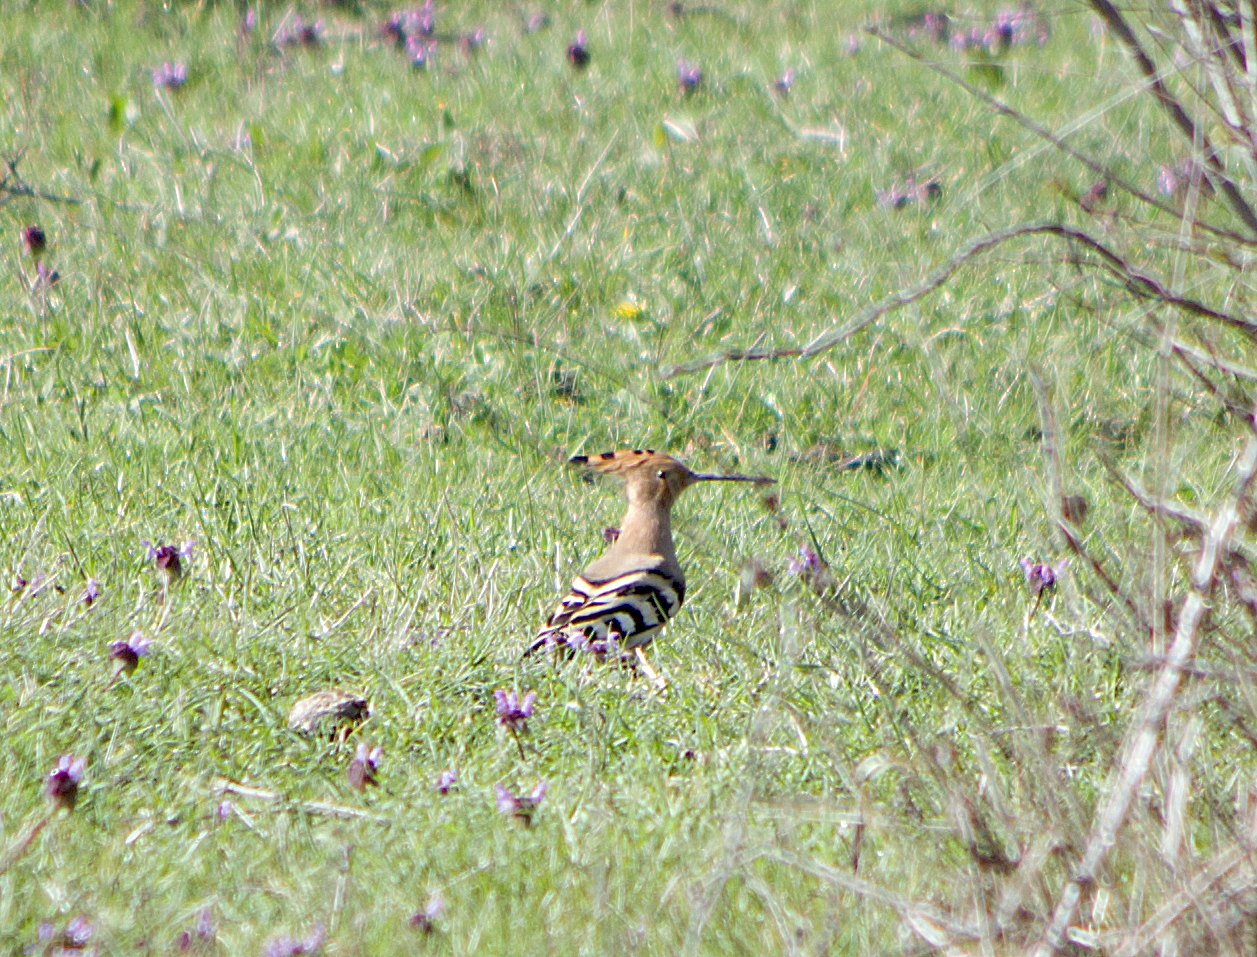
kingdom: Animalia
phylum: Chordata
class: Aves
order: Bucerotiformes
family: Upupidae
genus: Upupa
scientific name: Upupa epops
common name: Eurasian hoopoe
